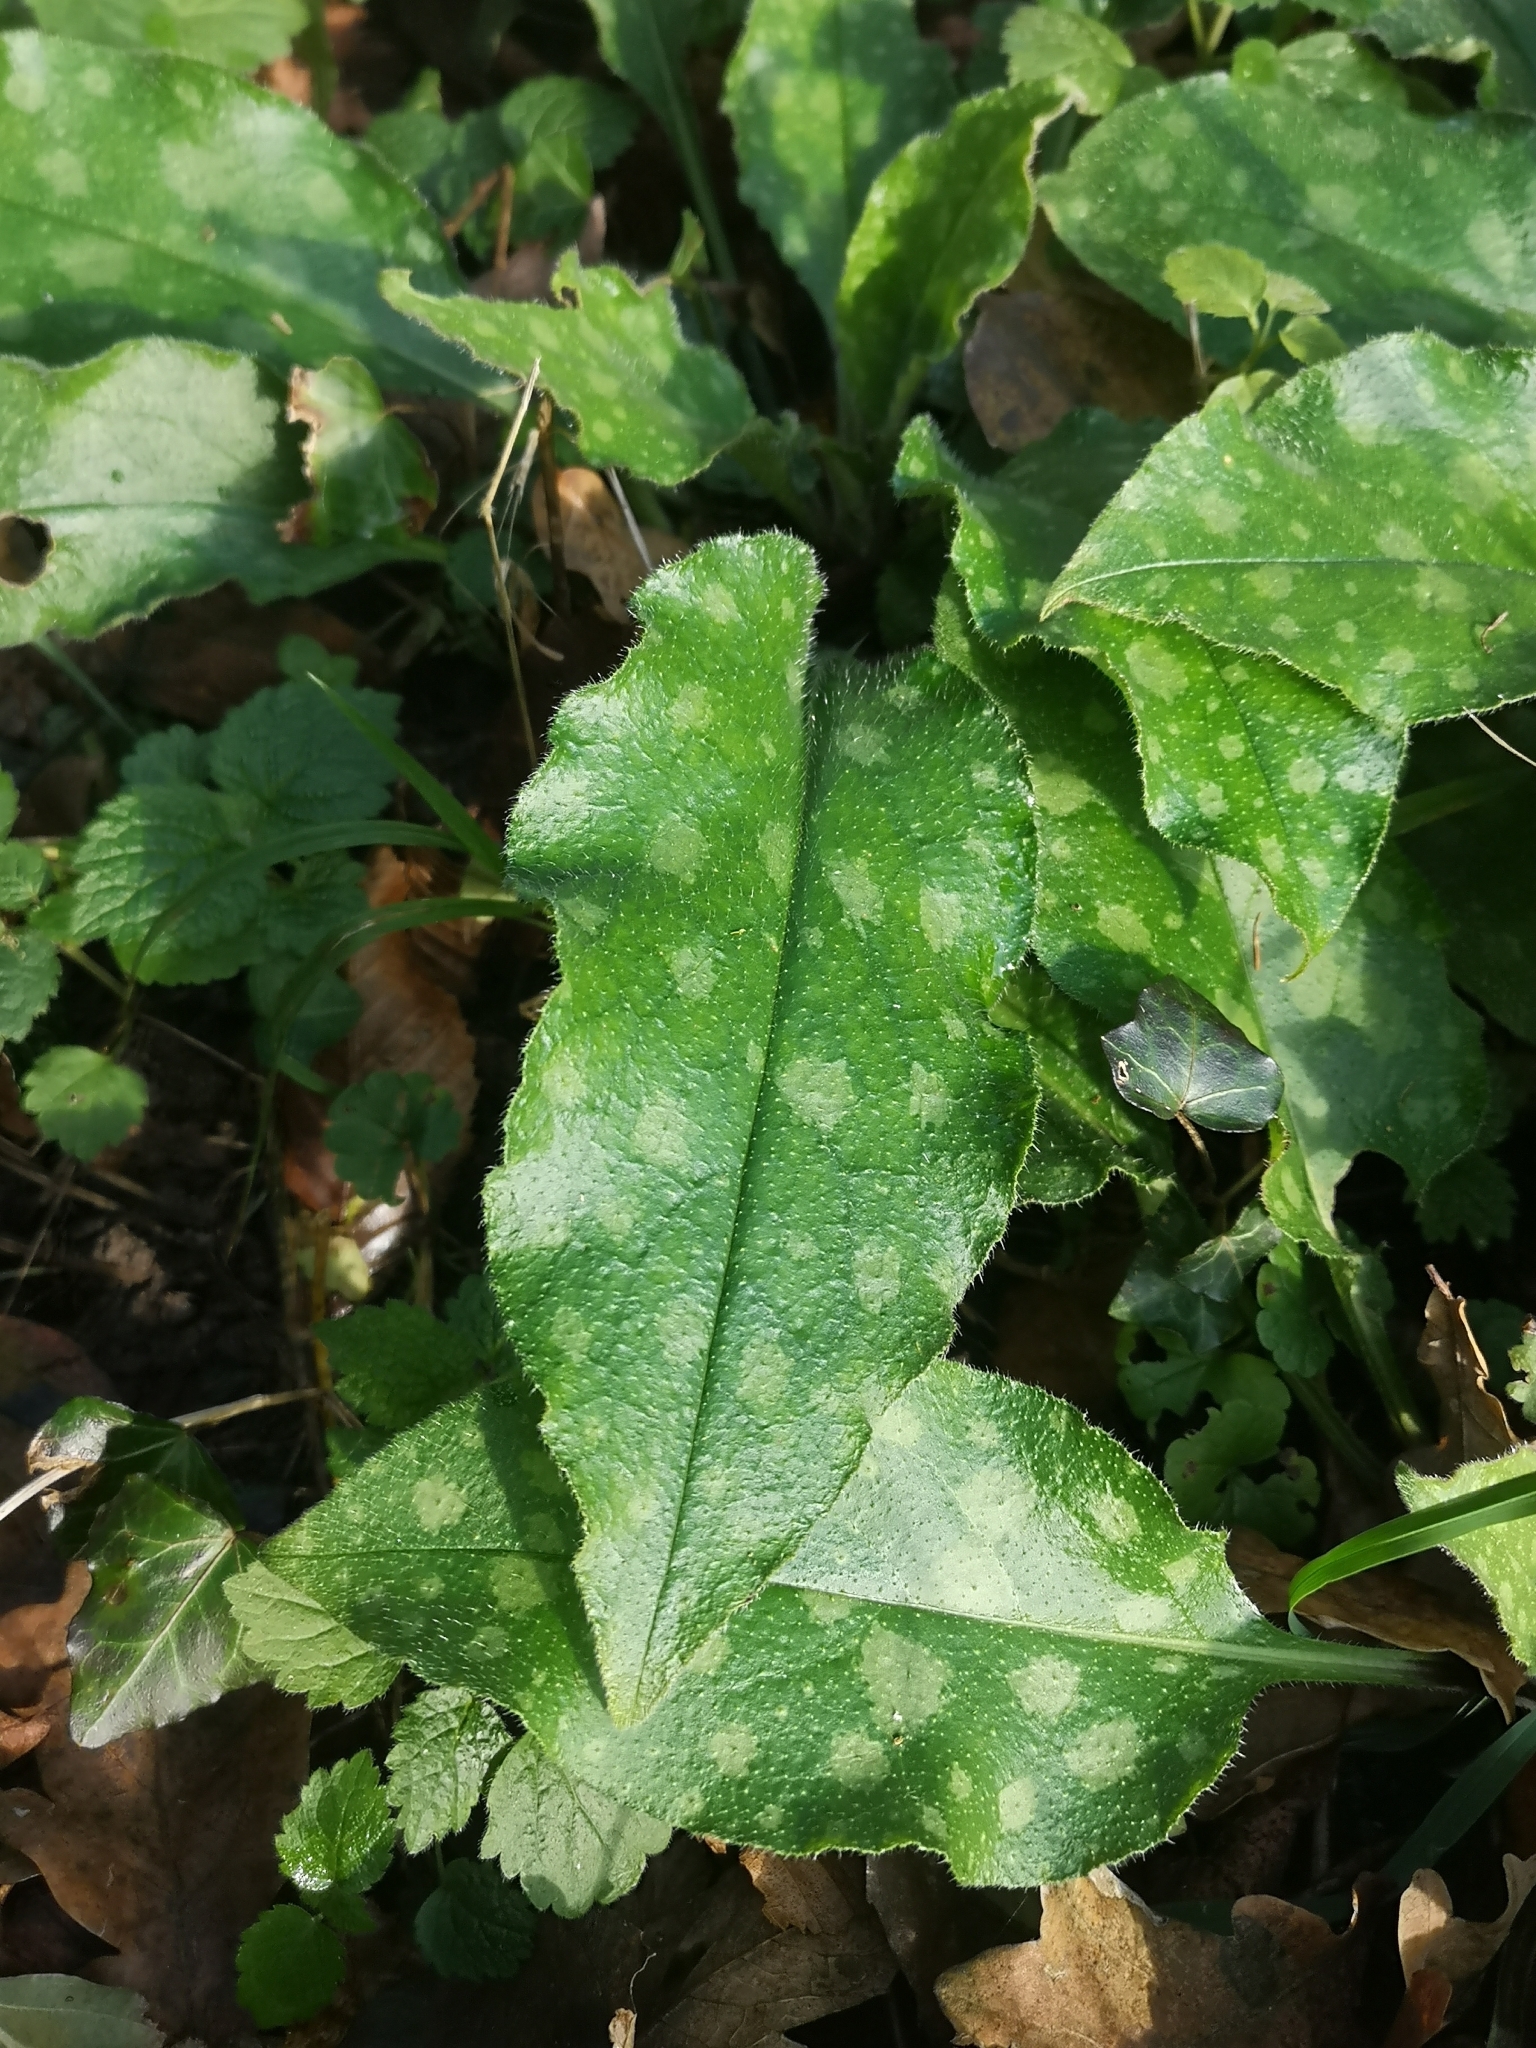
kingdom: Plantae
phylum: Tracheophyta
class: Magnoliopsida
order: Boraginales
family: Boraginaceae
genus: Pulmonaria
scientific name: Pulmonaria officinalis
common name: Lungwort
